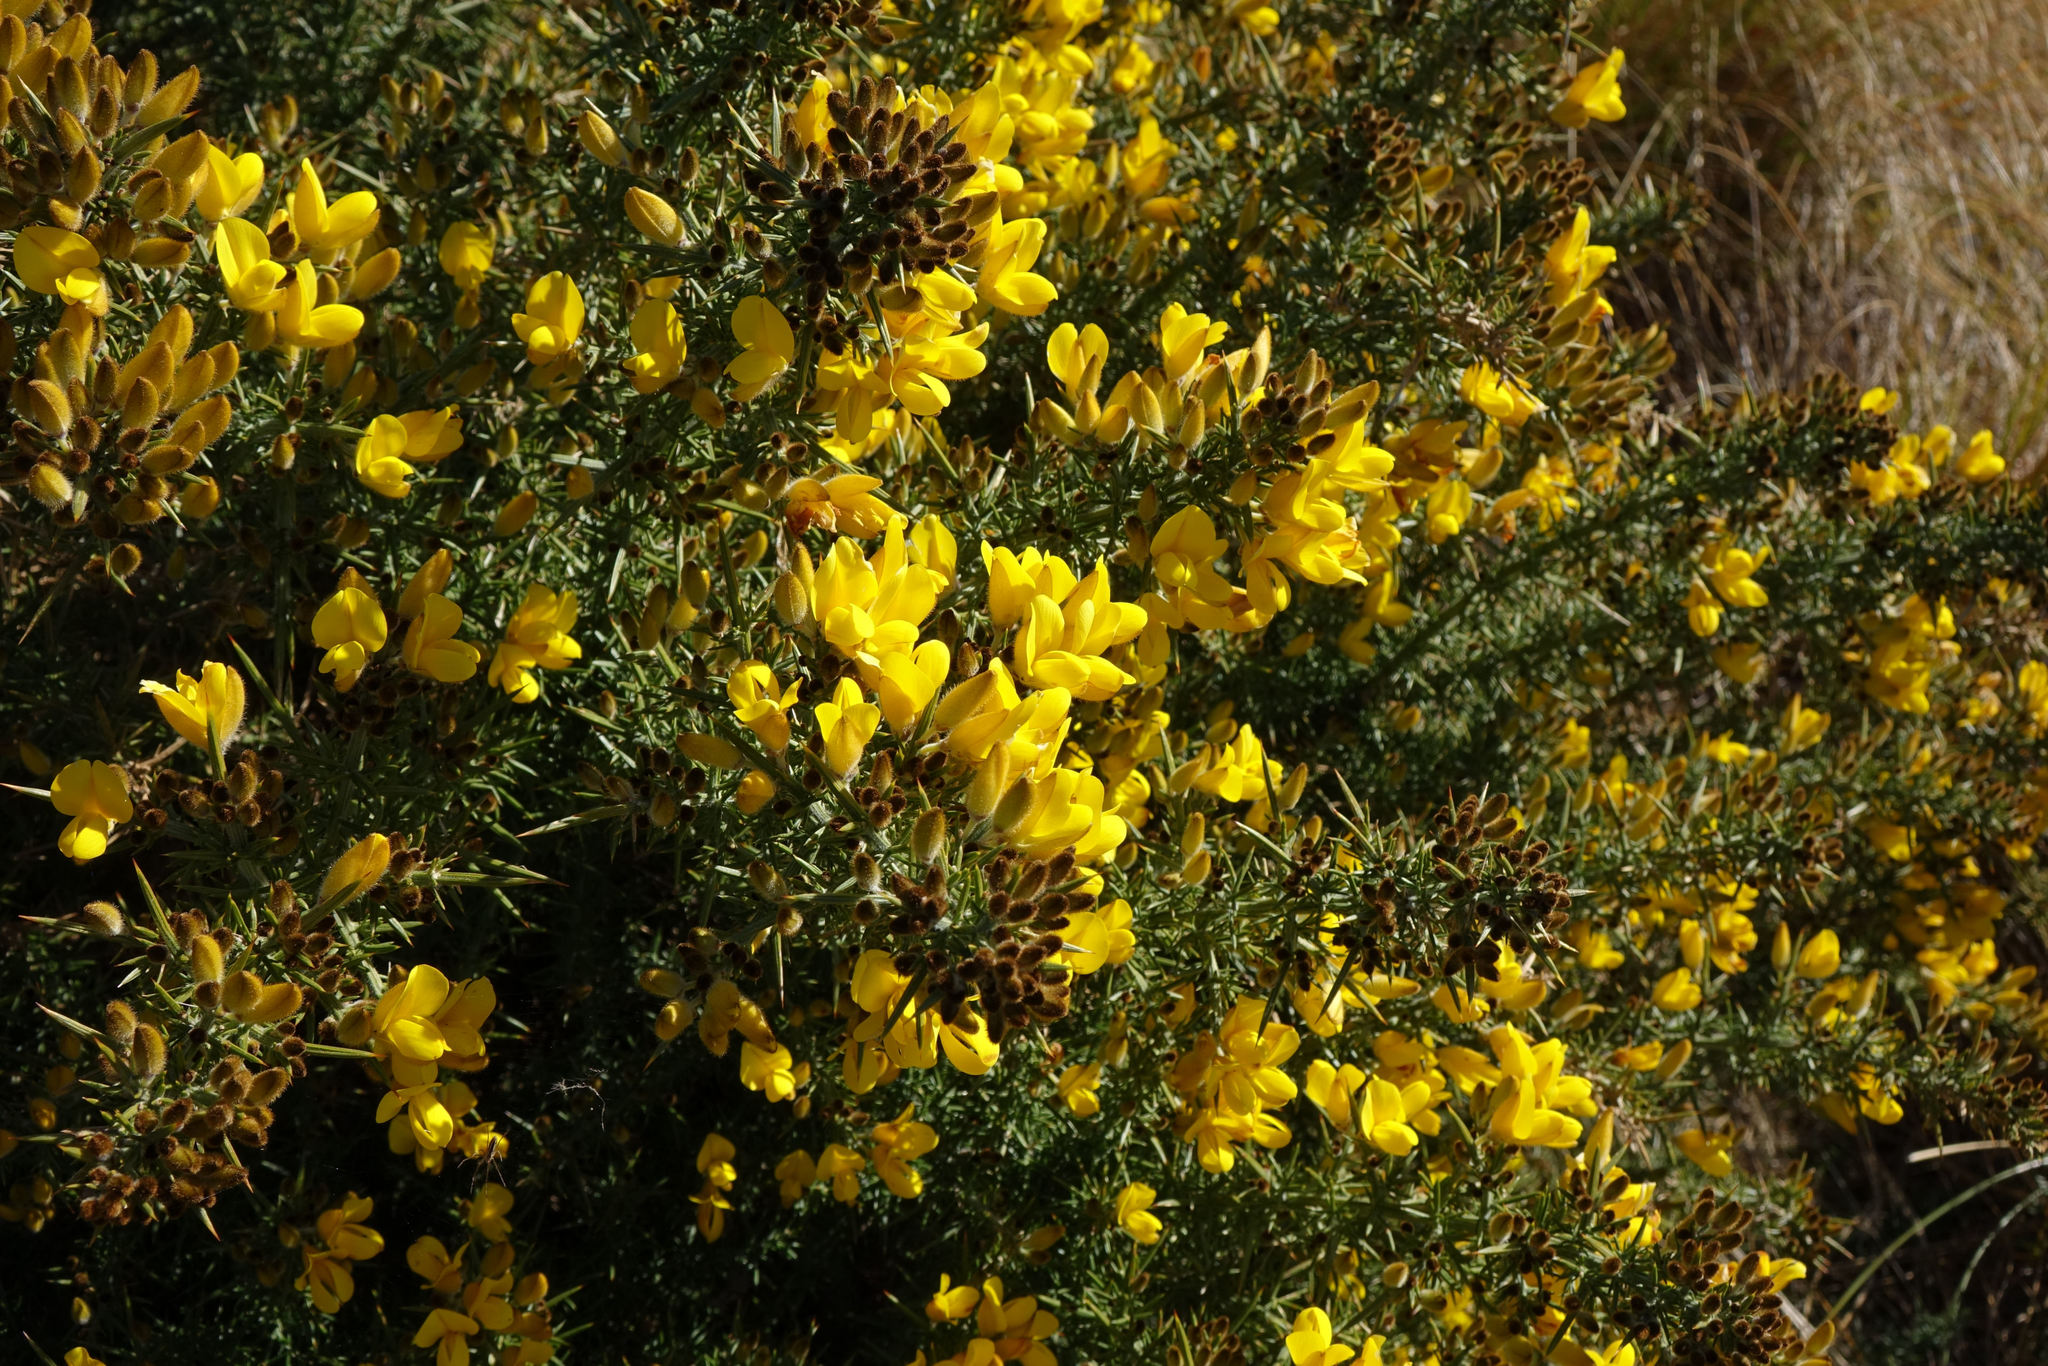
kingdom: Plantae
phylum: Tracheophyta
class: Magnoliopsida
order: Fabales
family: Fabaceae
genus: Ulex
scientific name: Ulex europaeus
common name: Common gorse
